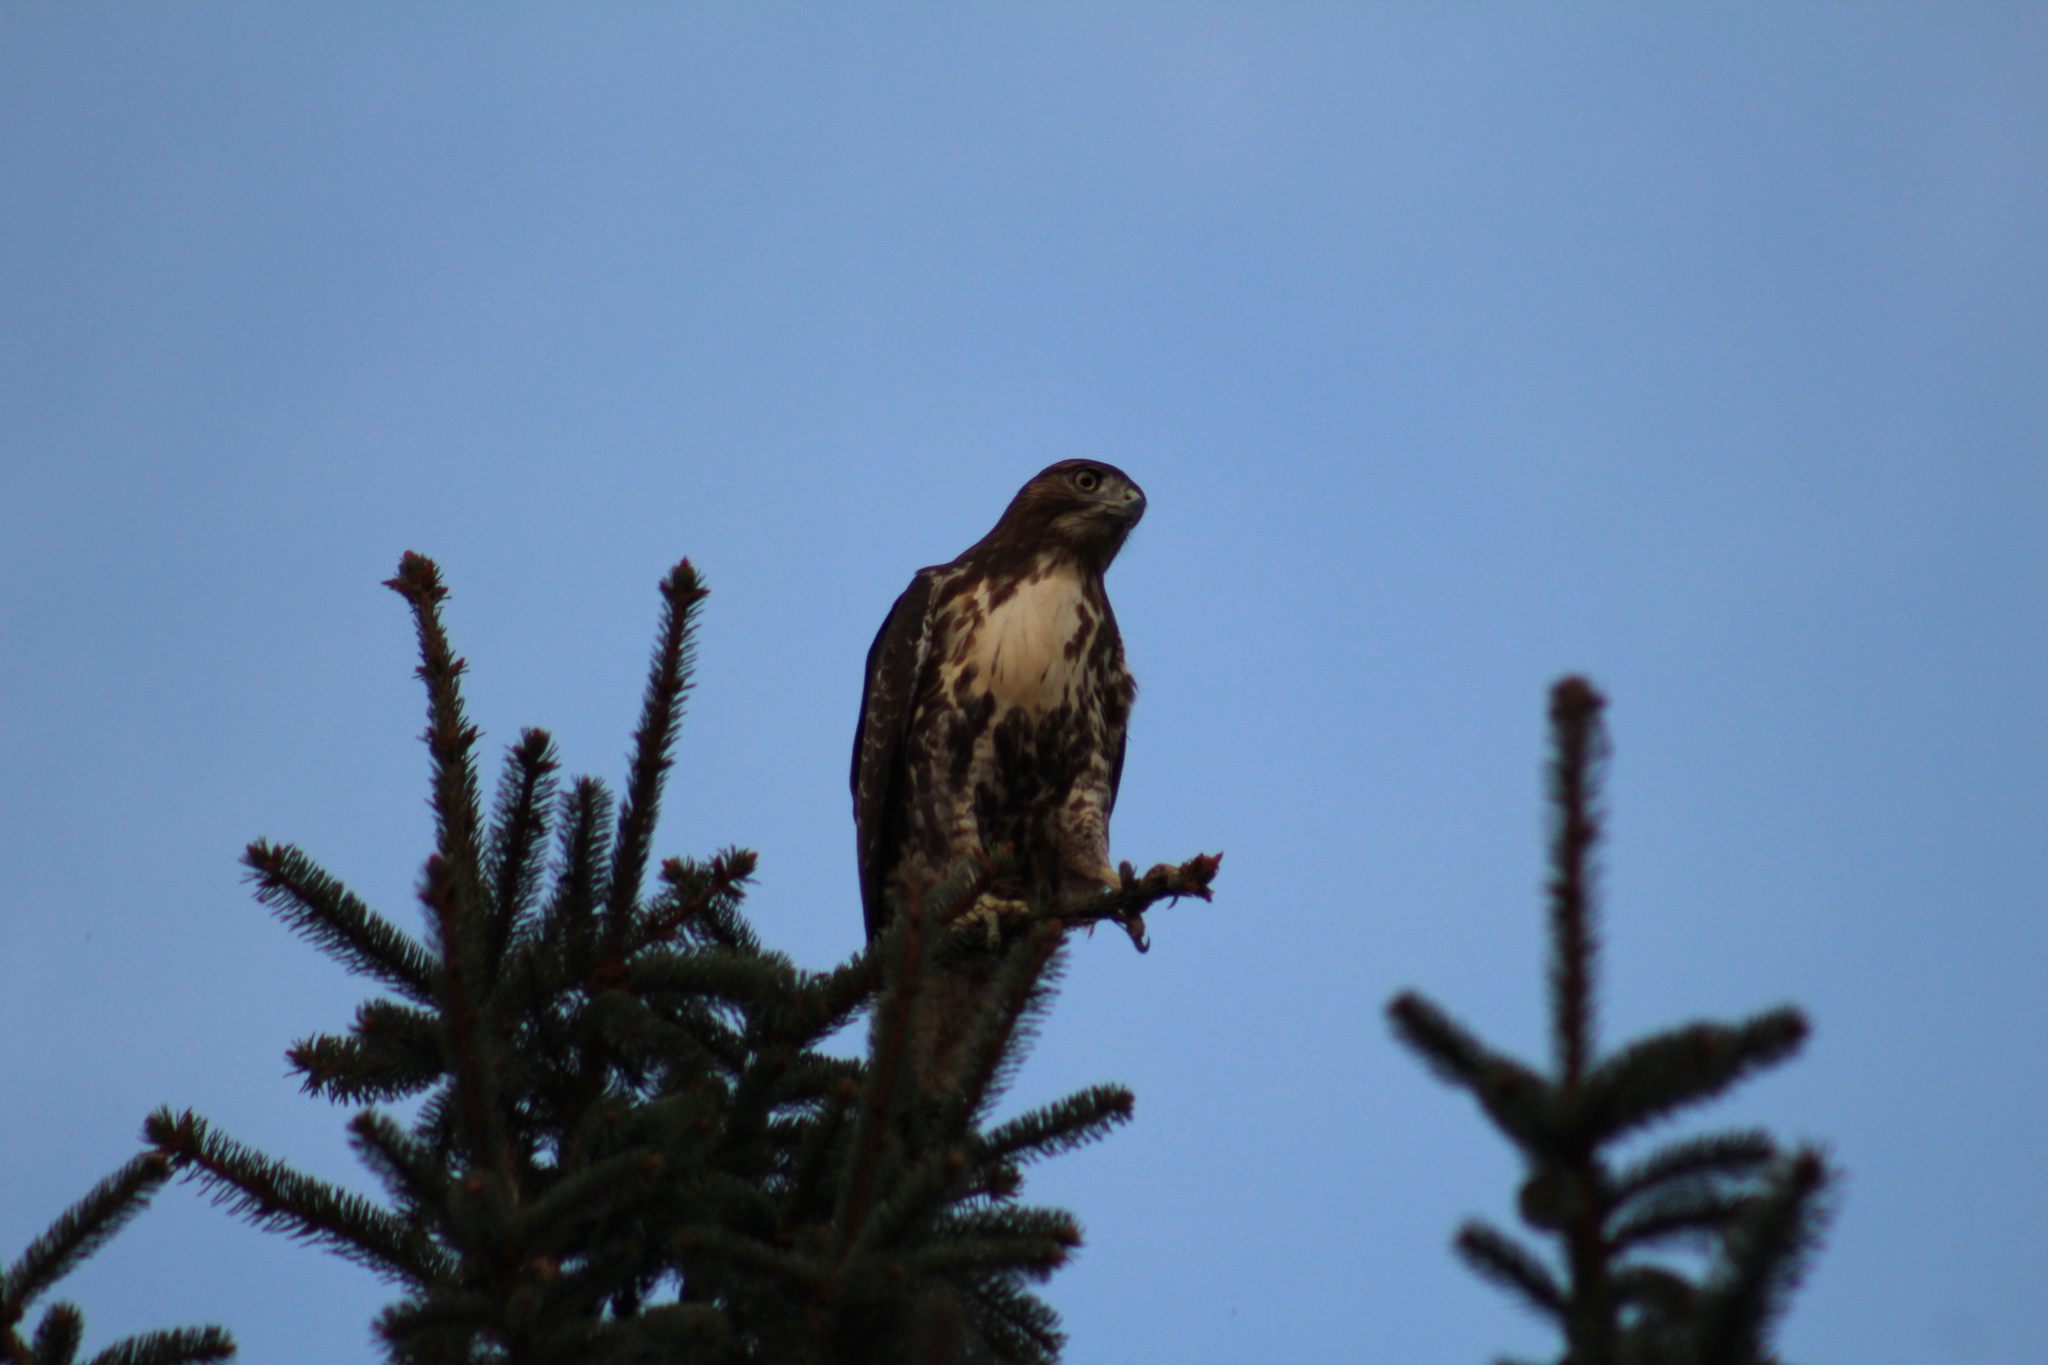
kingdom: Animalia
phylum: Chordata
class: Aves
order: Accipitriformes
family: Accipitridae
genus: Buteo
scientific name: Buteo jamaicensis
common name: Red-tailed hawk
